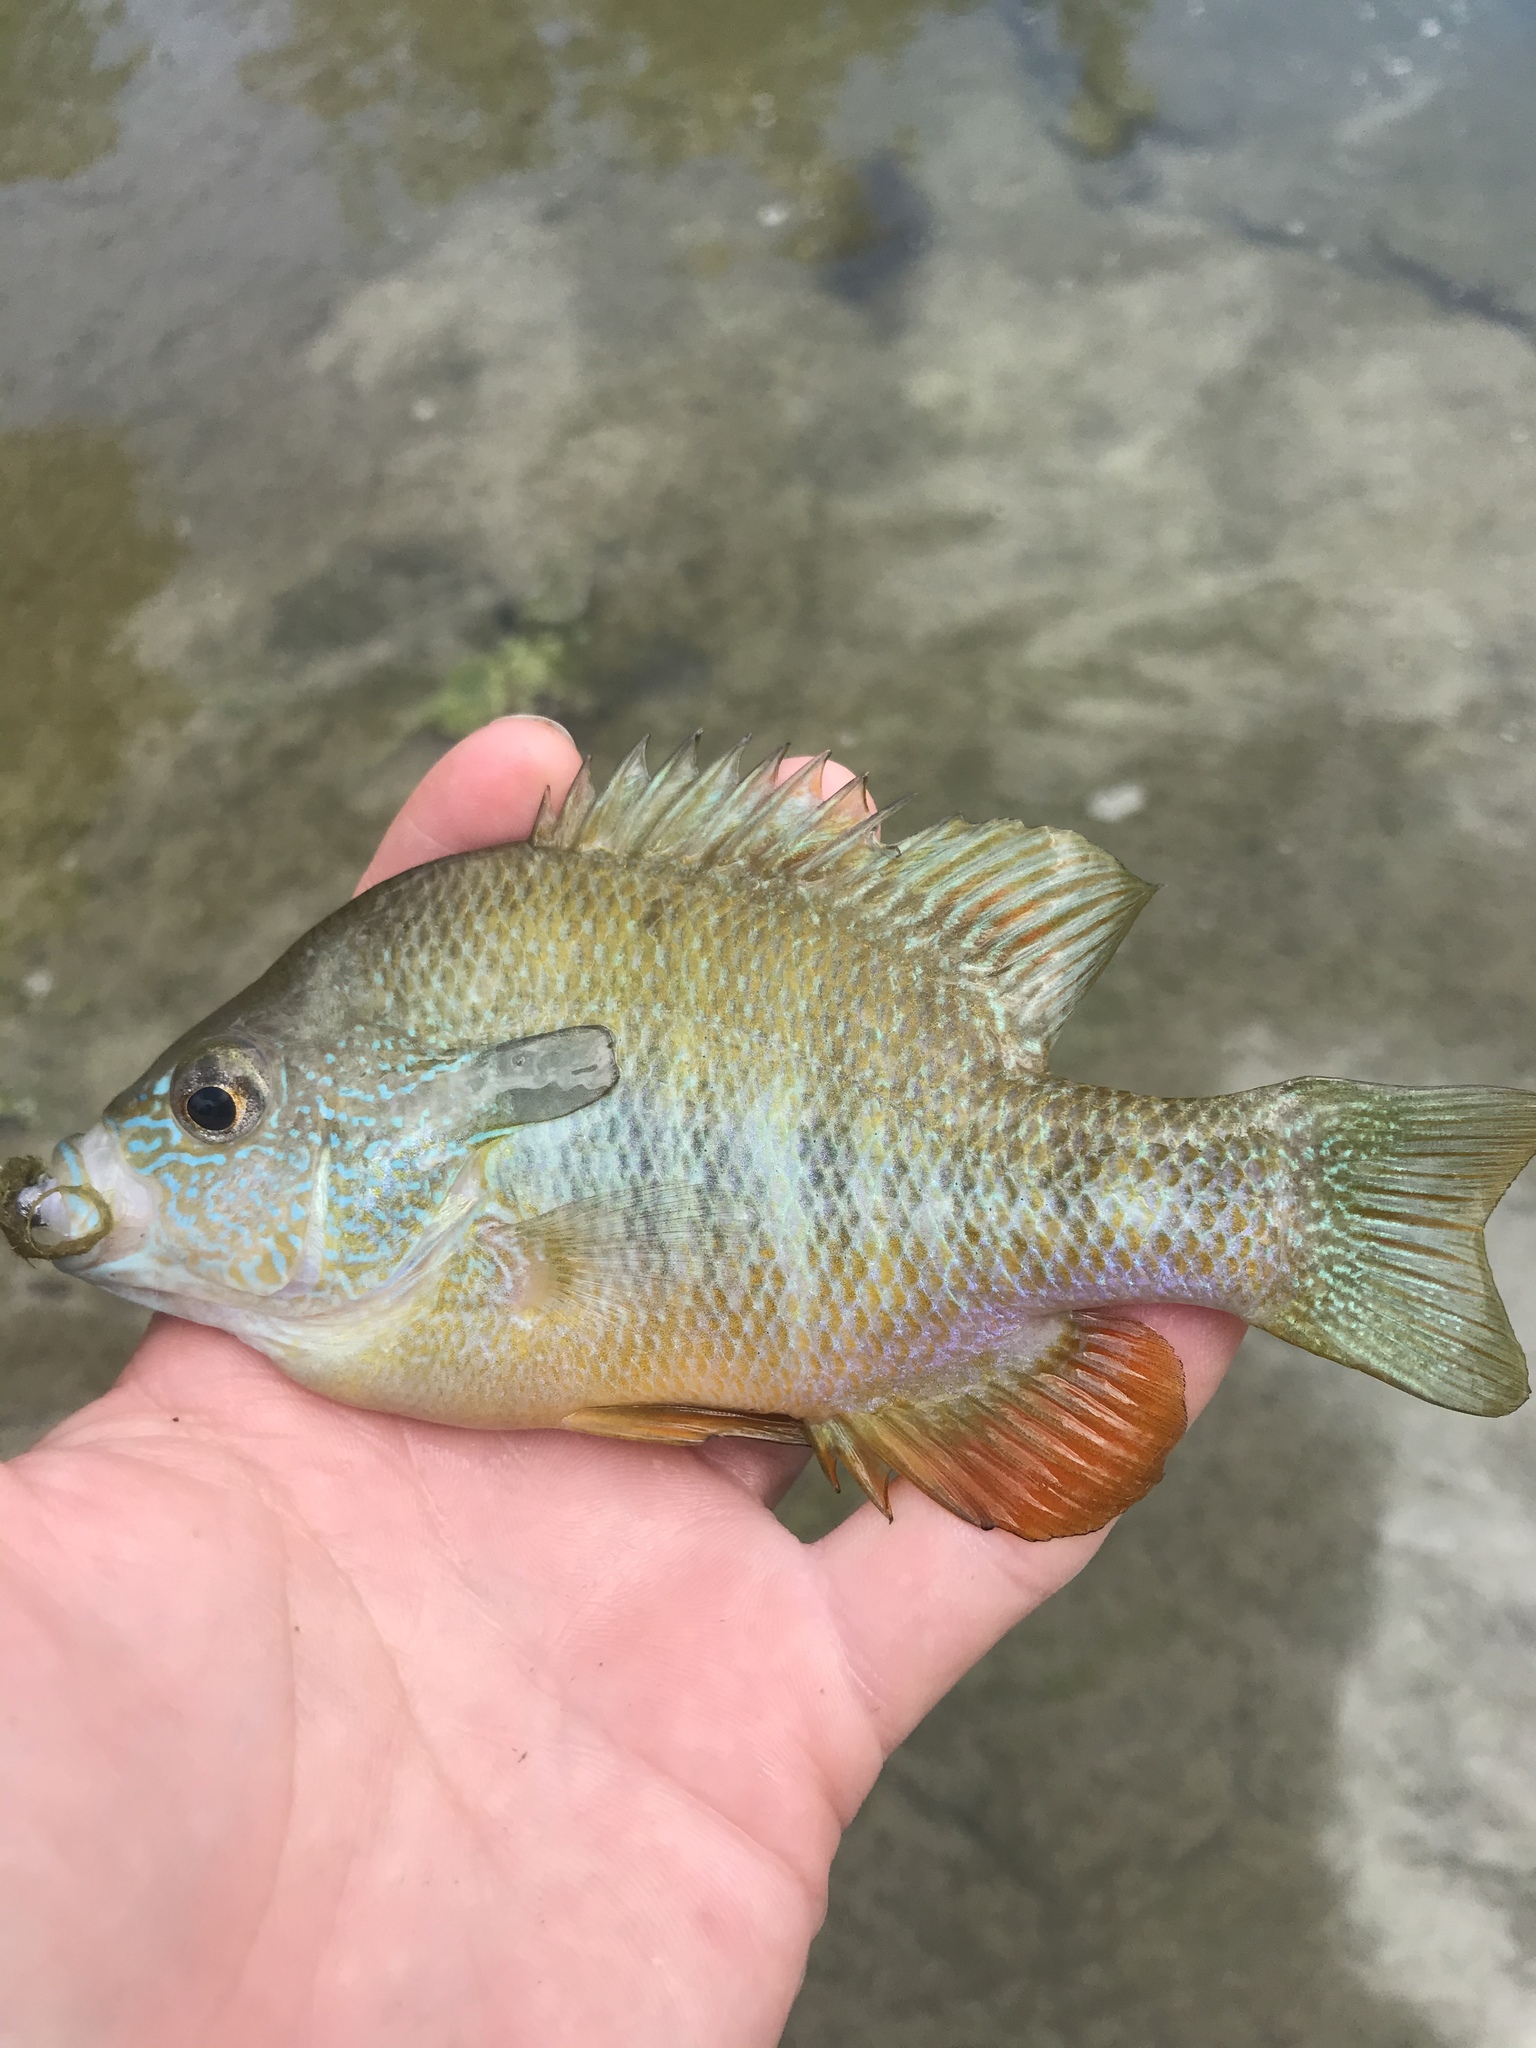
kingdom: Animalia
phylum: Chordata
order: Perciformes
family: Centrarchidae
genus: Lepomis
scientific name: Lepomis megalotis
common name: Longear sunfish
